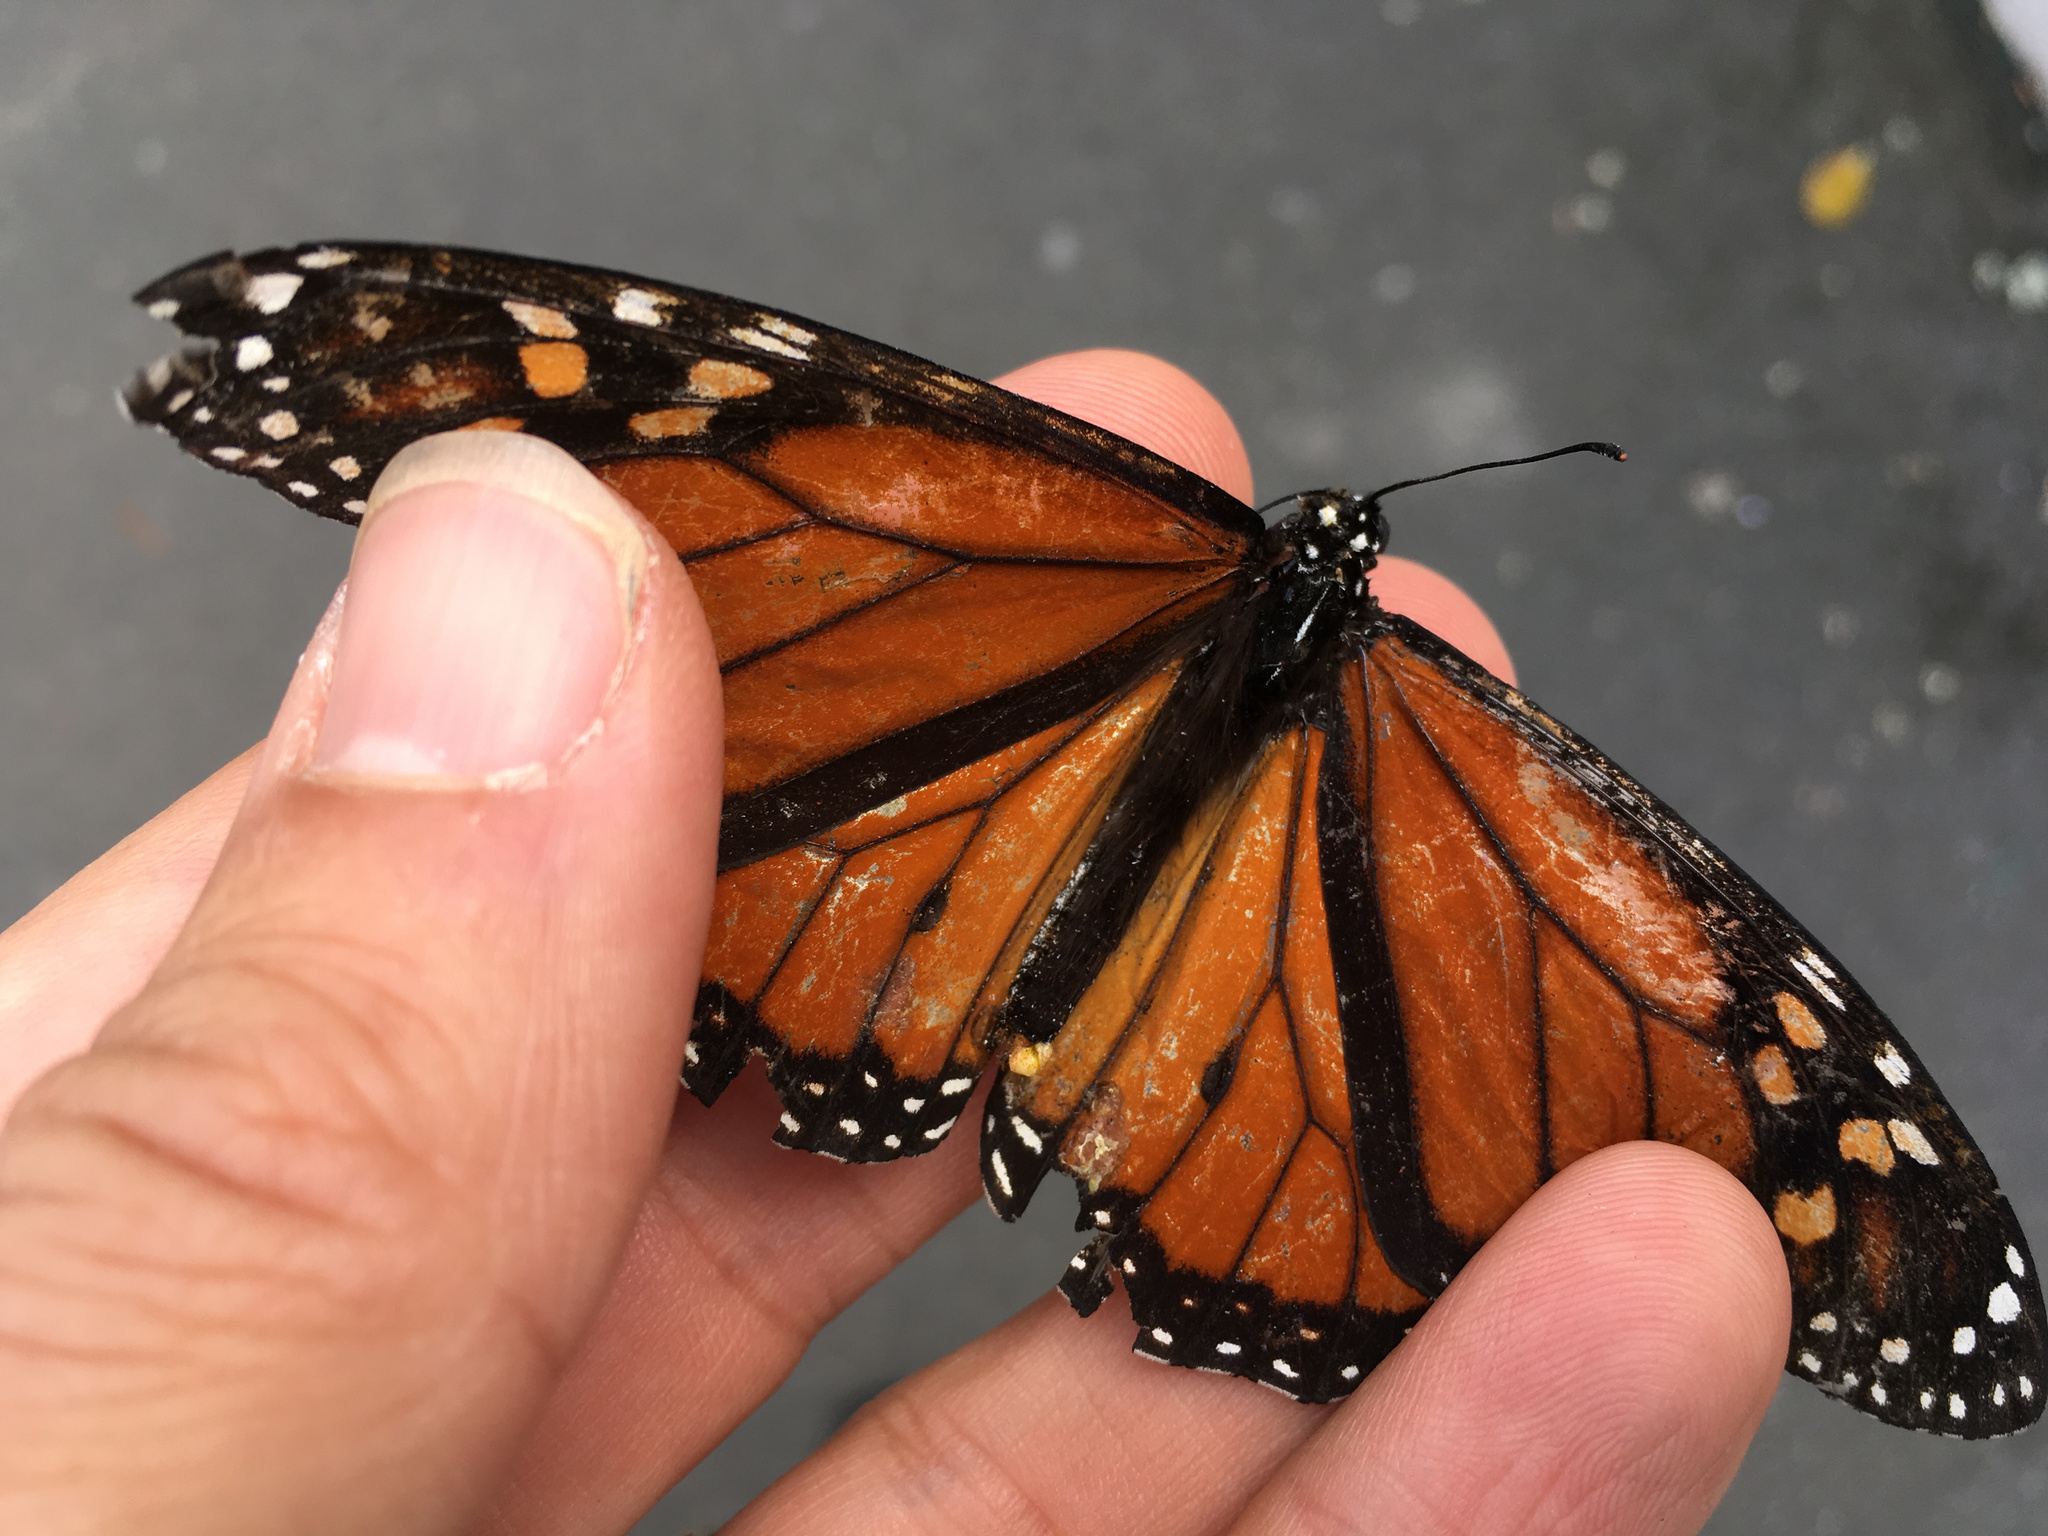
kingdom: Animalia
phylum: Arthropoda
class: Insecta
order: Lepidoptera
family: Nymphalidae
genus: Danaus
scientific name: Danaus plexippus
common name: Monarch
